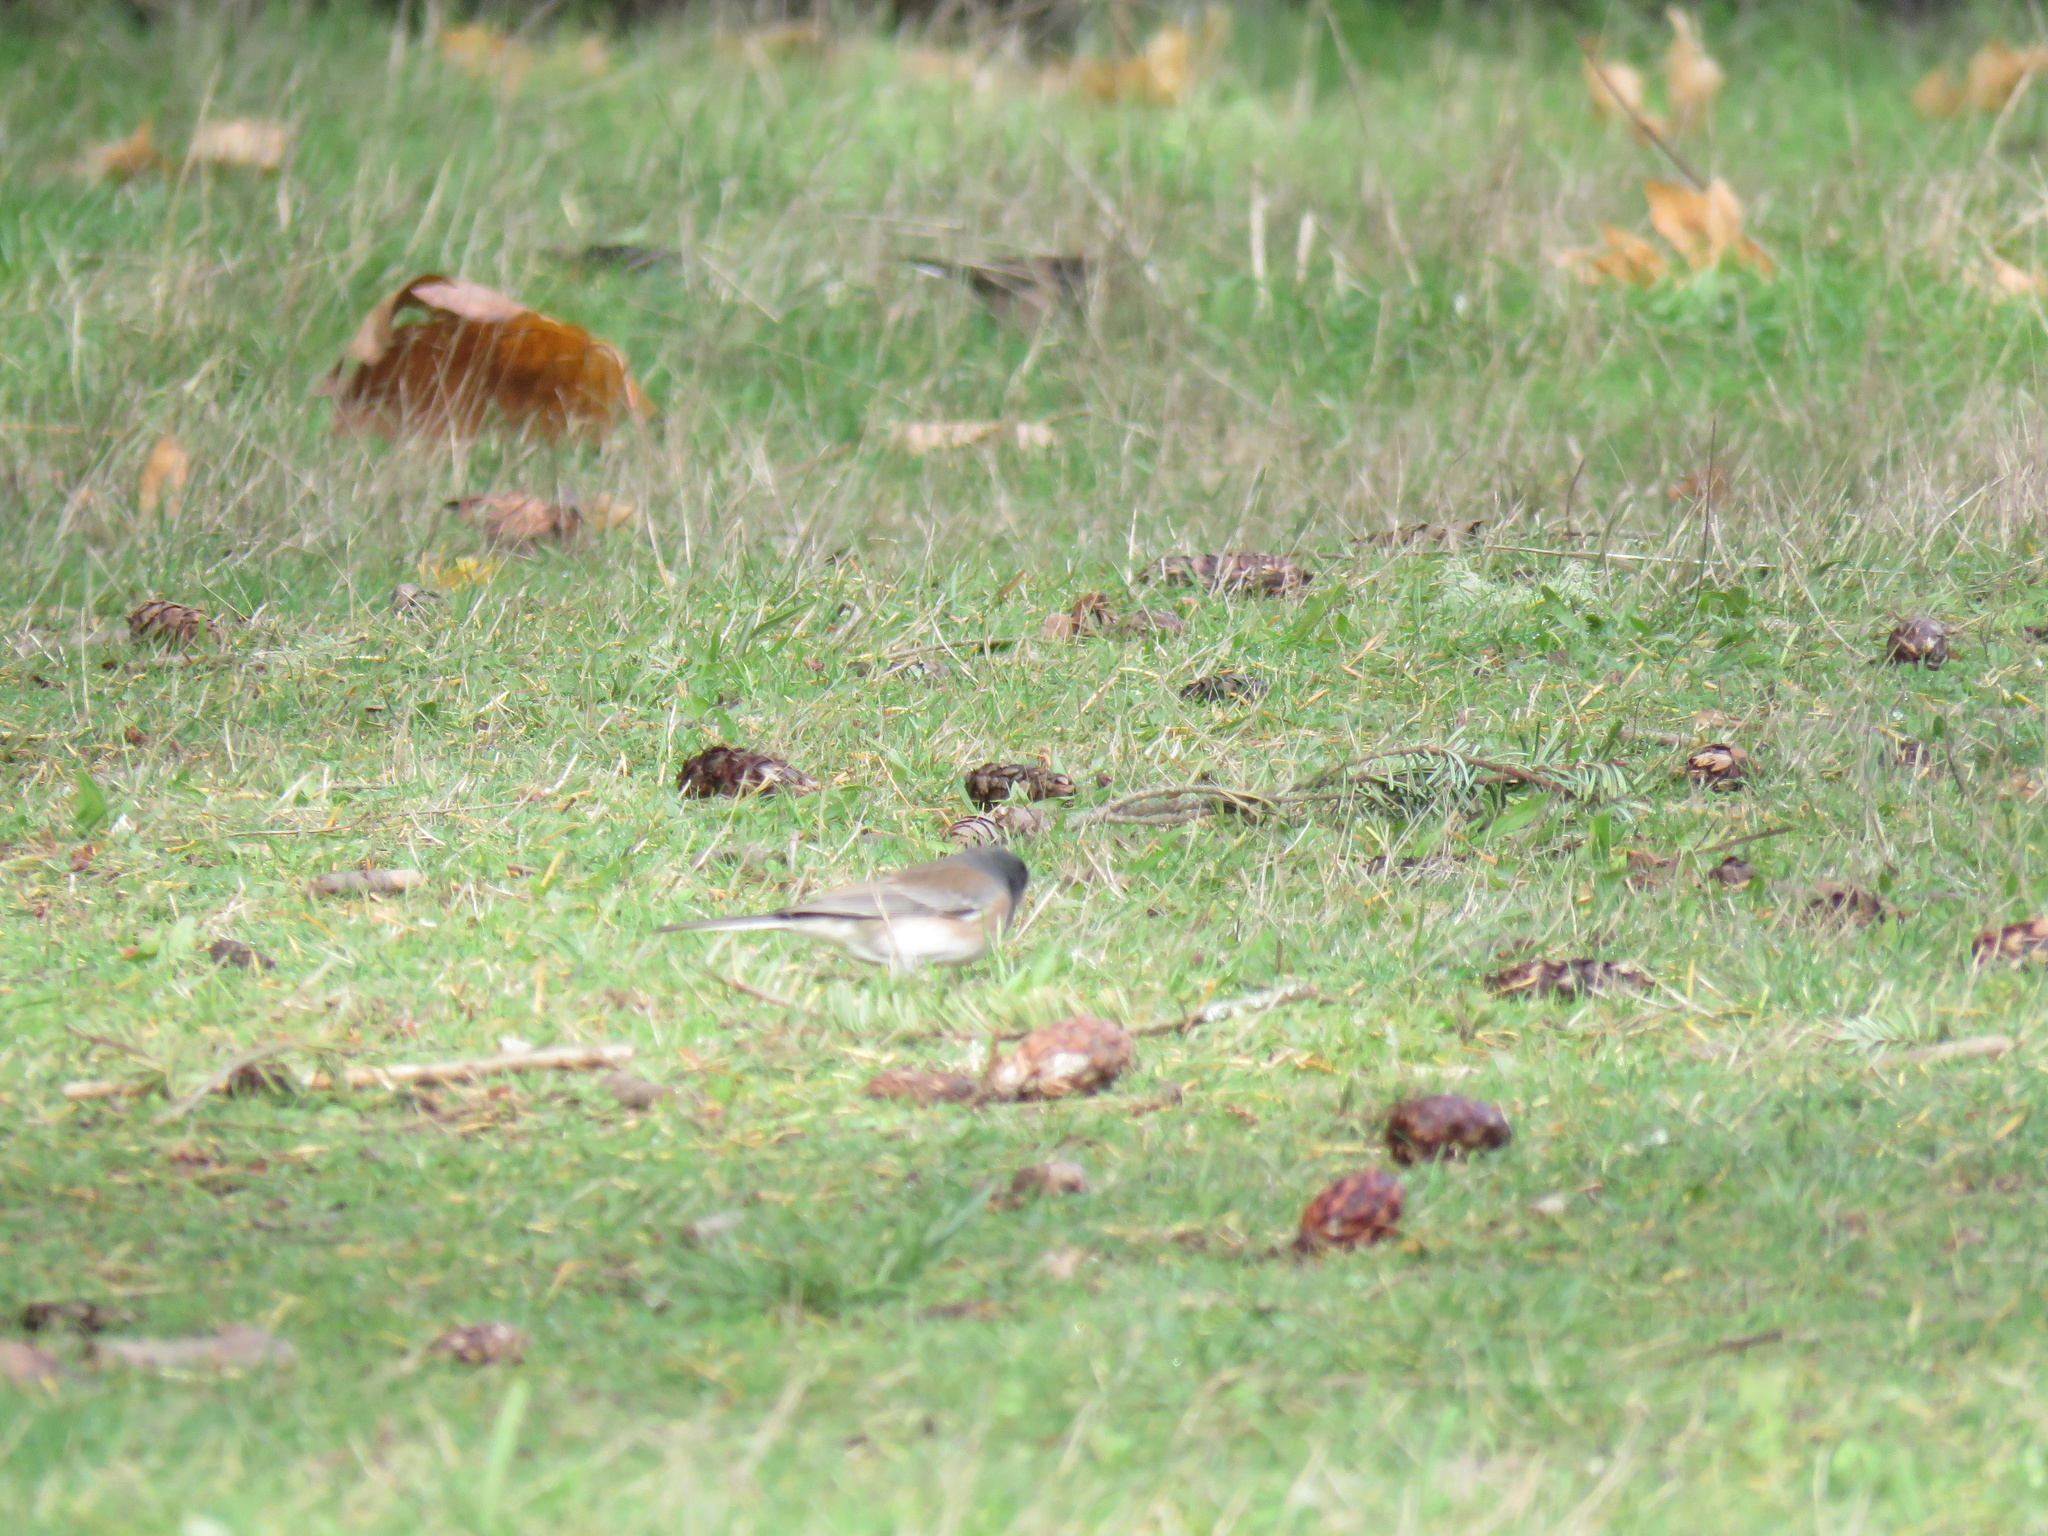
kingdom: Animalia
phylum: Chordata
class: Aves
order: Passeriformes
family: Passerellidae
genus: Junco
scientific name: Junco hyemalis
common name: Dark-eyed junco
